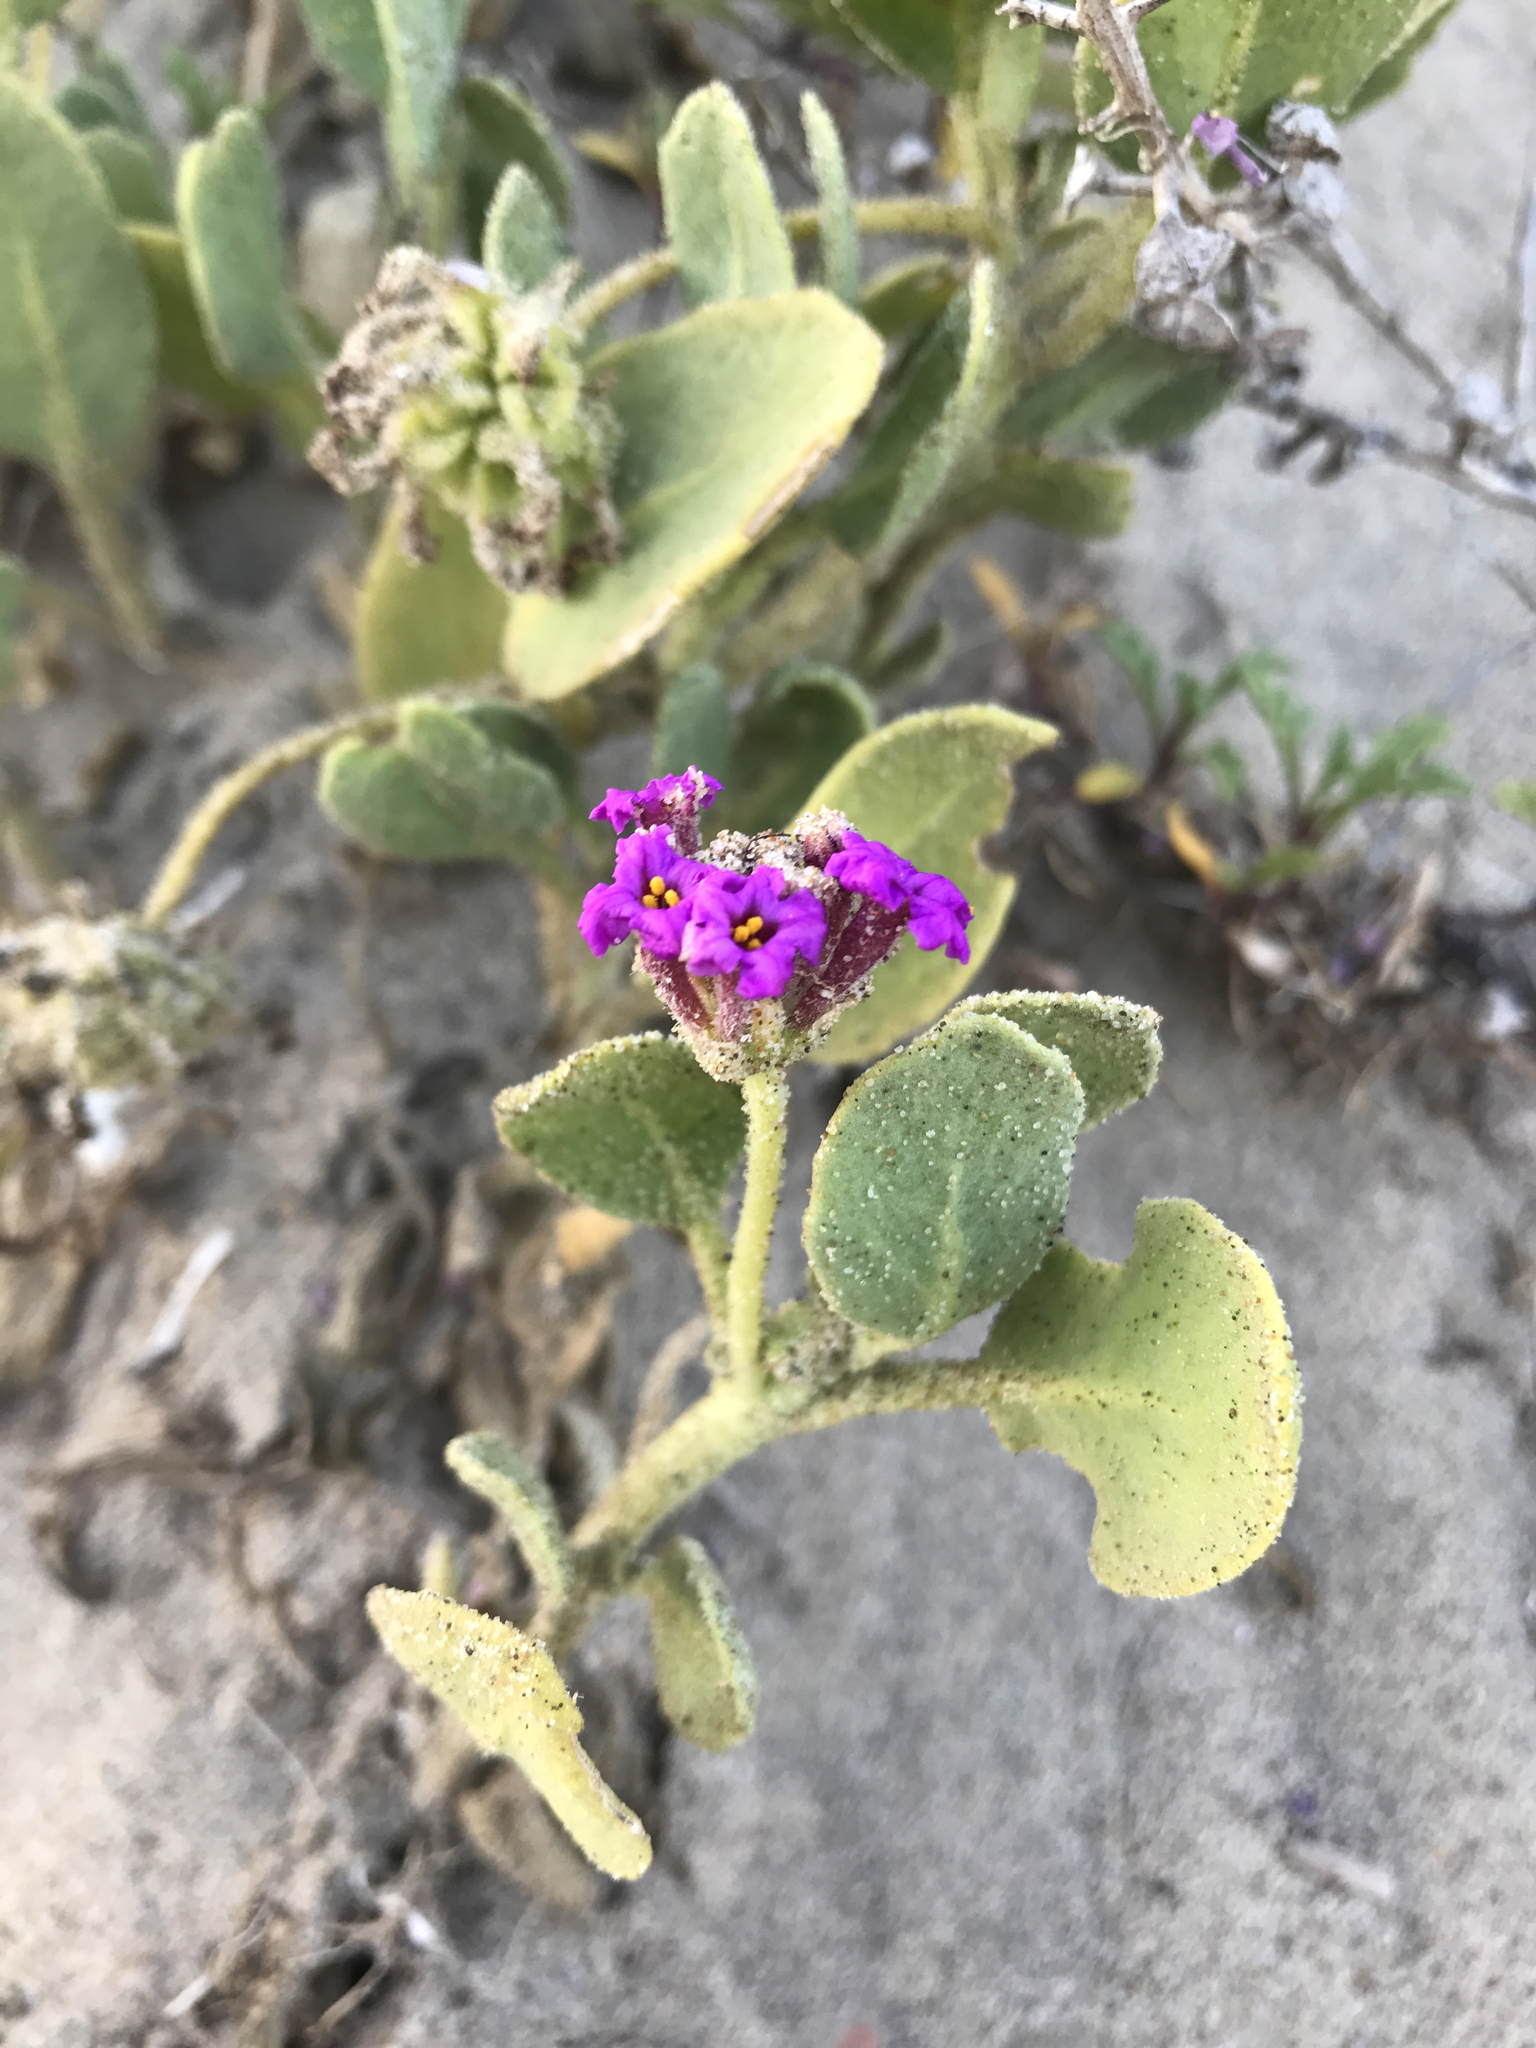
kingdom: Plantae
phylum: Tracheophyta
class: Magnoliopsida
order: Caryophyllales
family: Nyctaginaceae
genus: Abronia
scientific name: Abronia maritima
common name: Red sand-verbena
